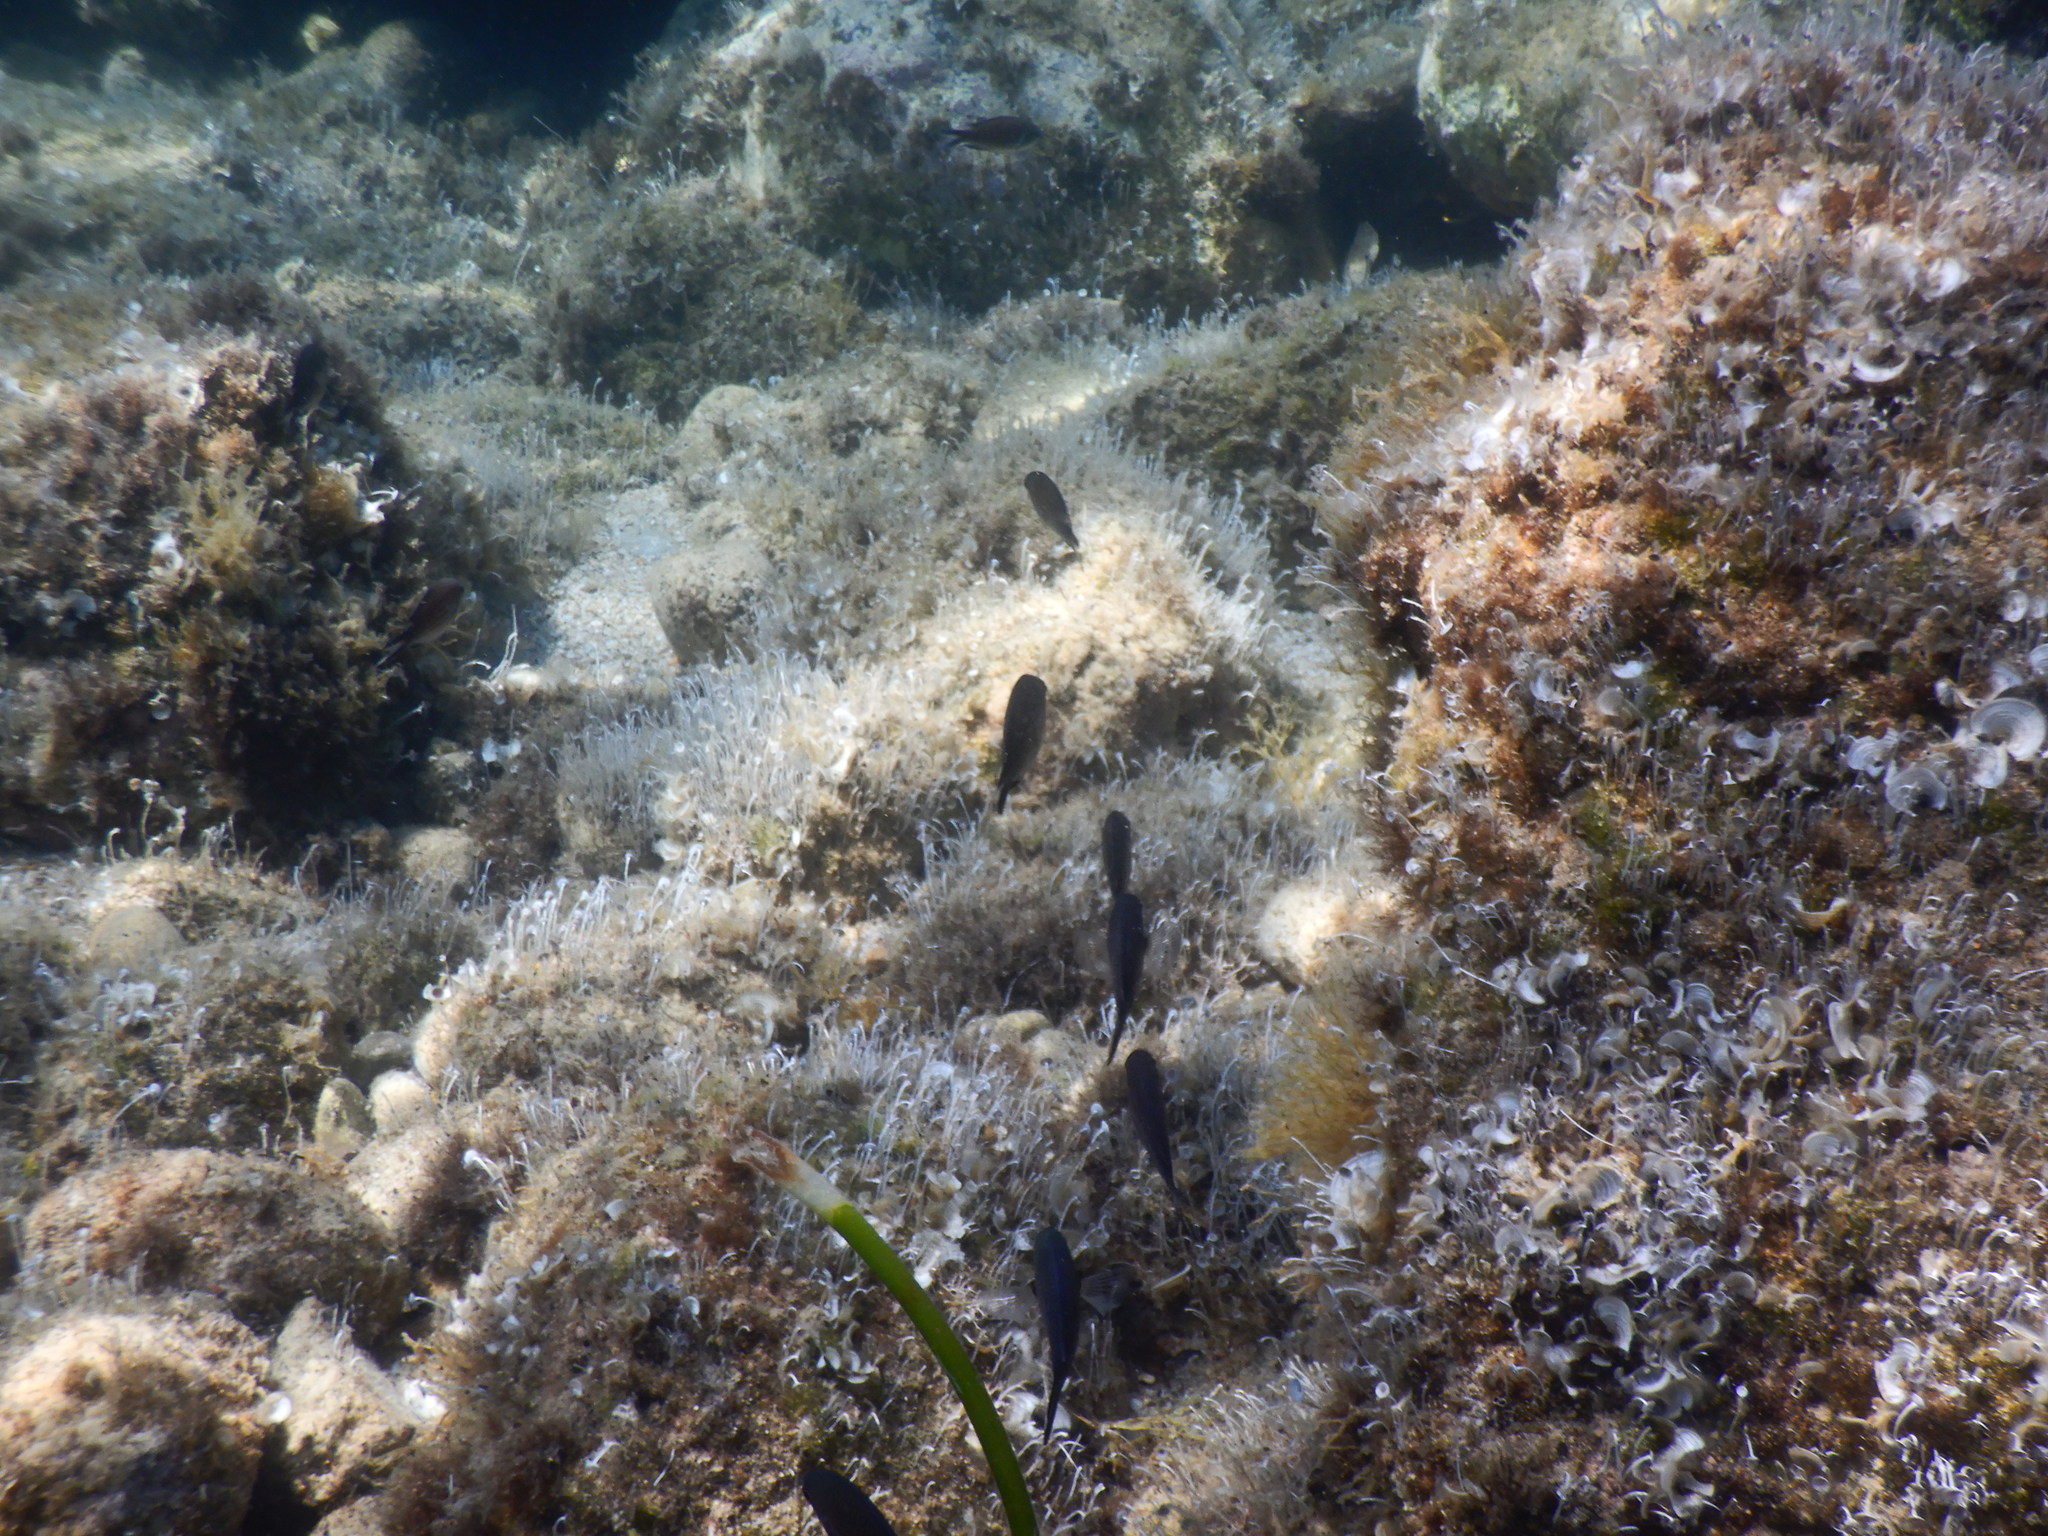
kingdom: Animalia
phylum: Chordata
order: Perciformes
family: Pomacentridae
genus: Chromis
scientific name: Chromis chromis
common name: Damselfish
